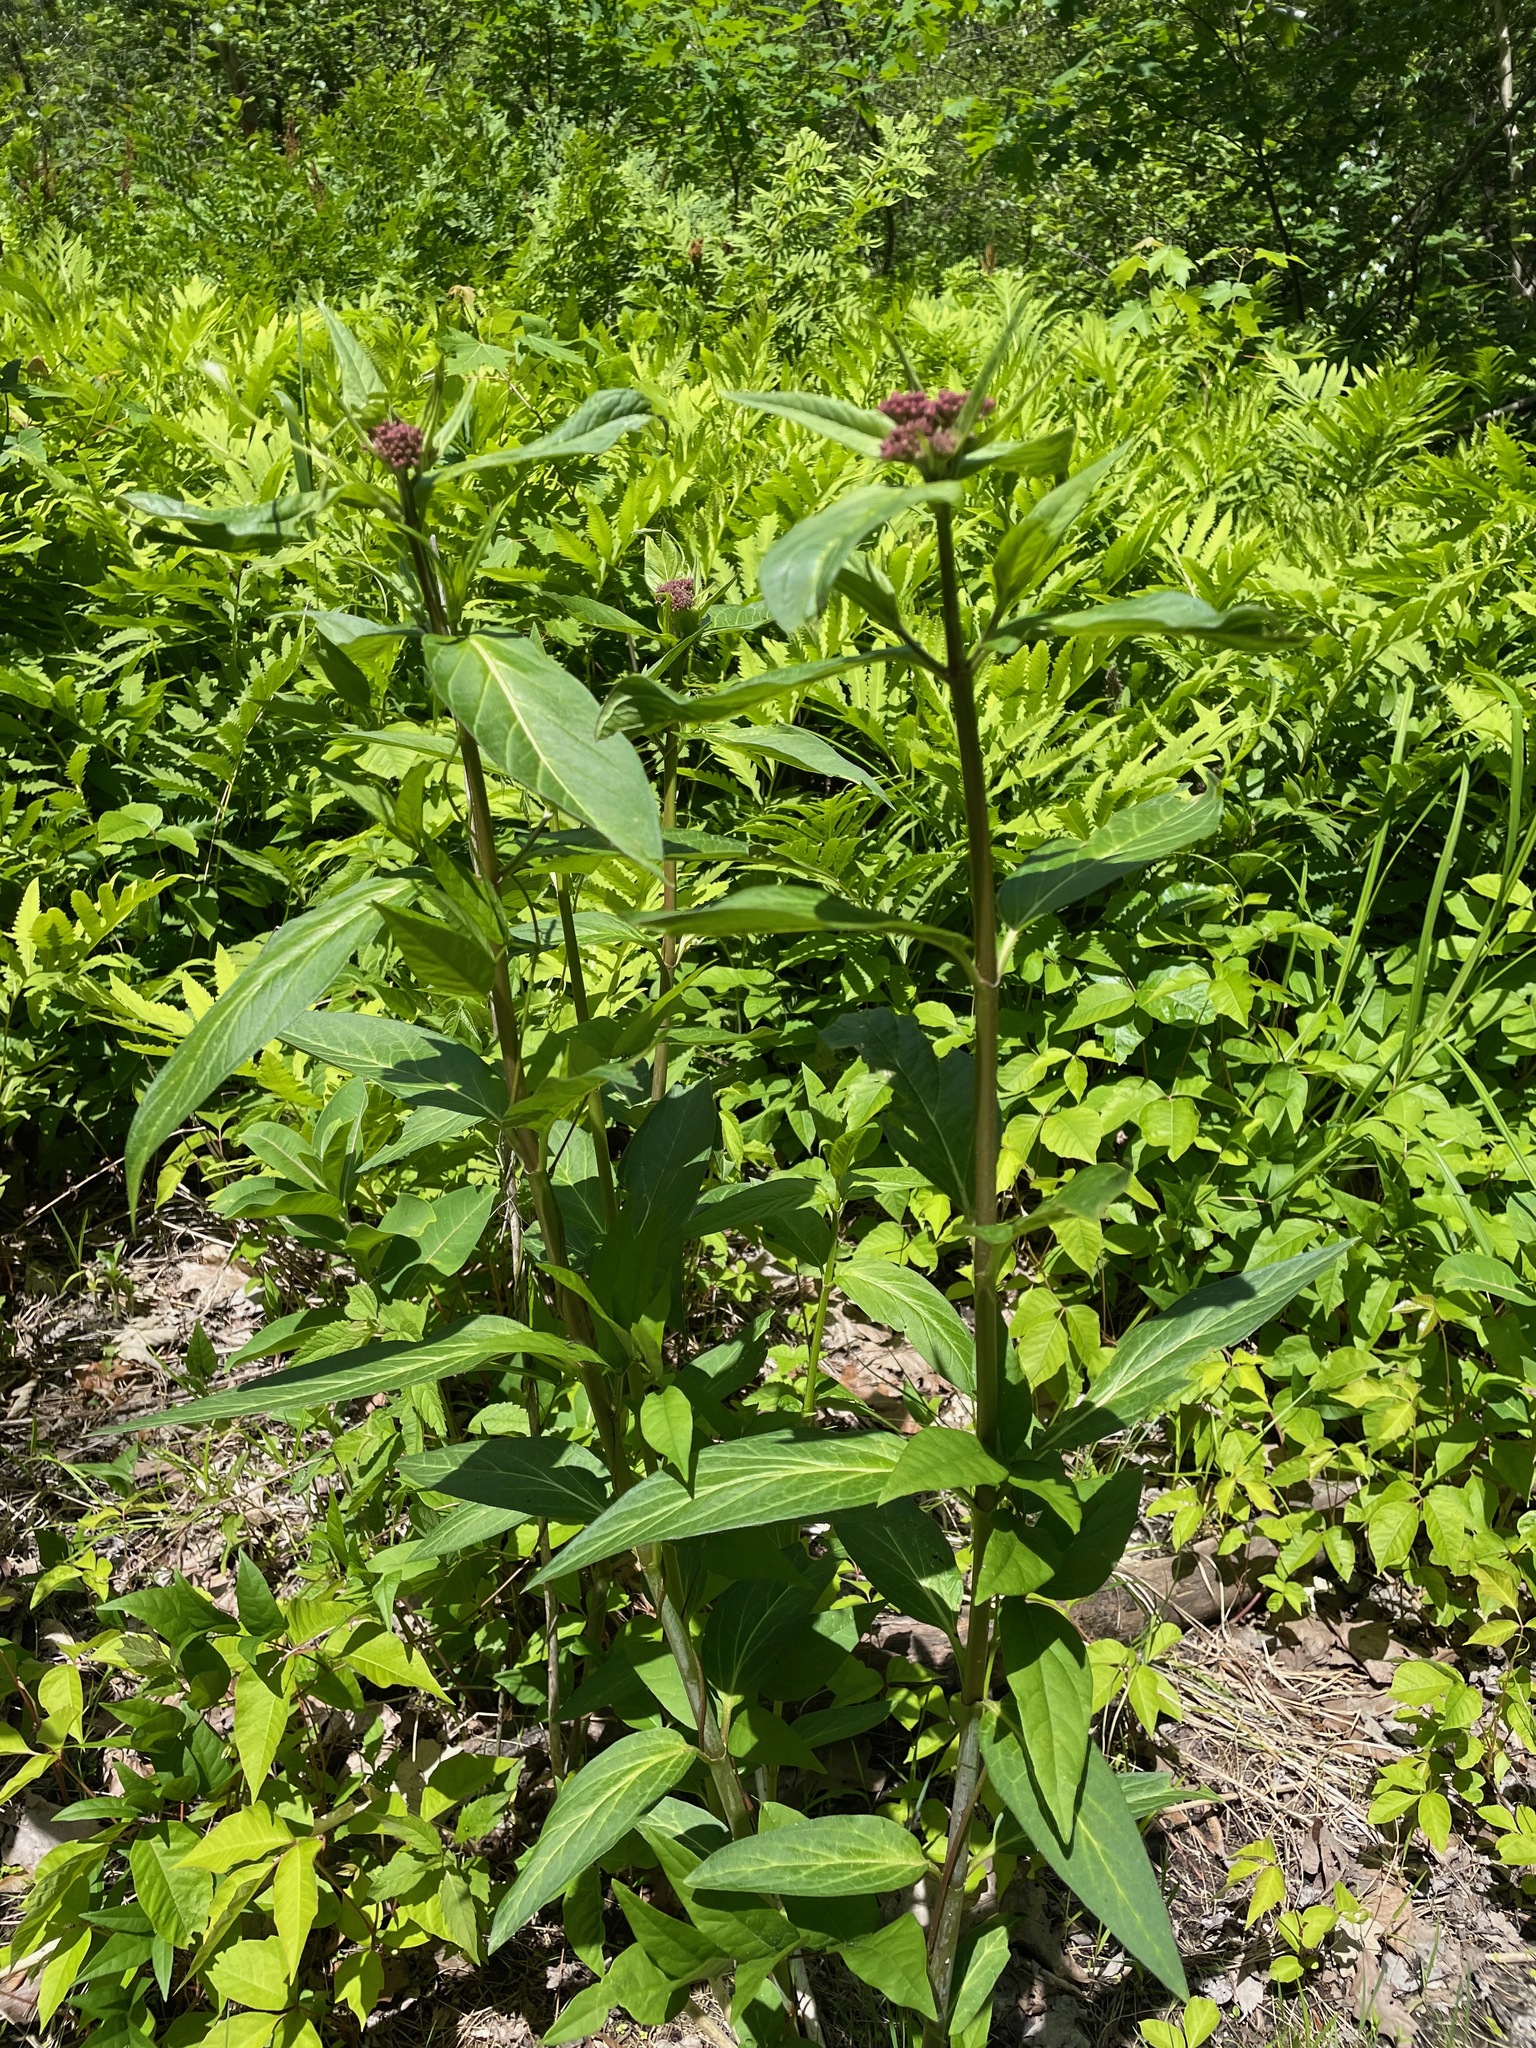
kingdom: Plantae
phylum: Tracheophyta
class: Magnoliopsida
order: Gentianales
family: Apocynaceae
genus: Asclepias
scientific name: Asclepias incarnata
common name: Swamp milkweed
